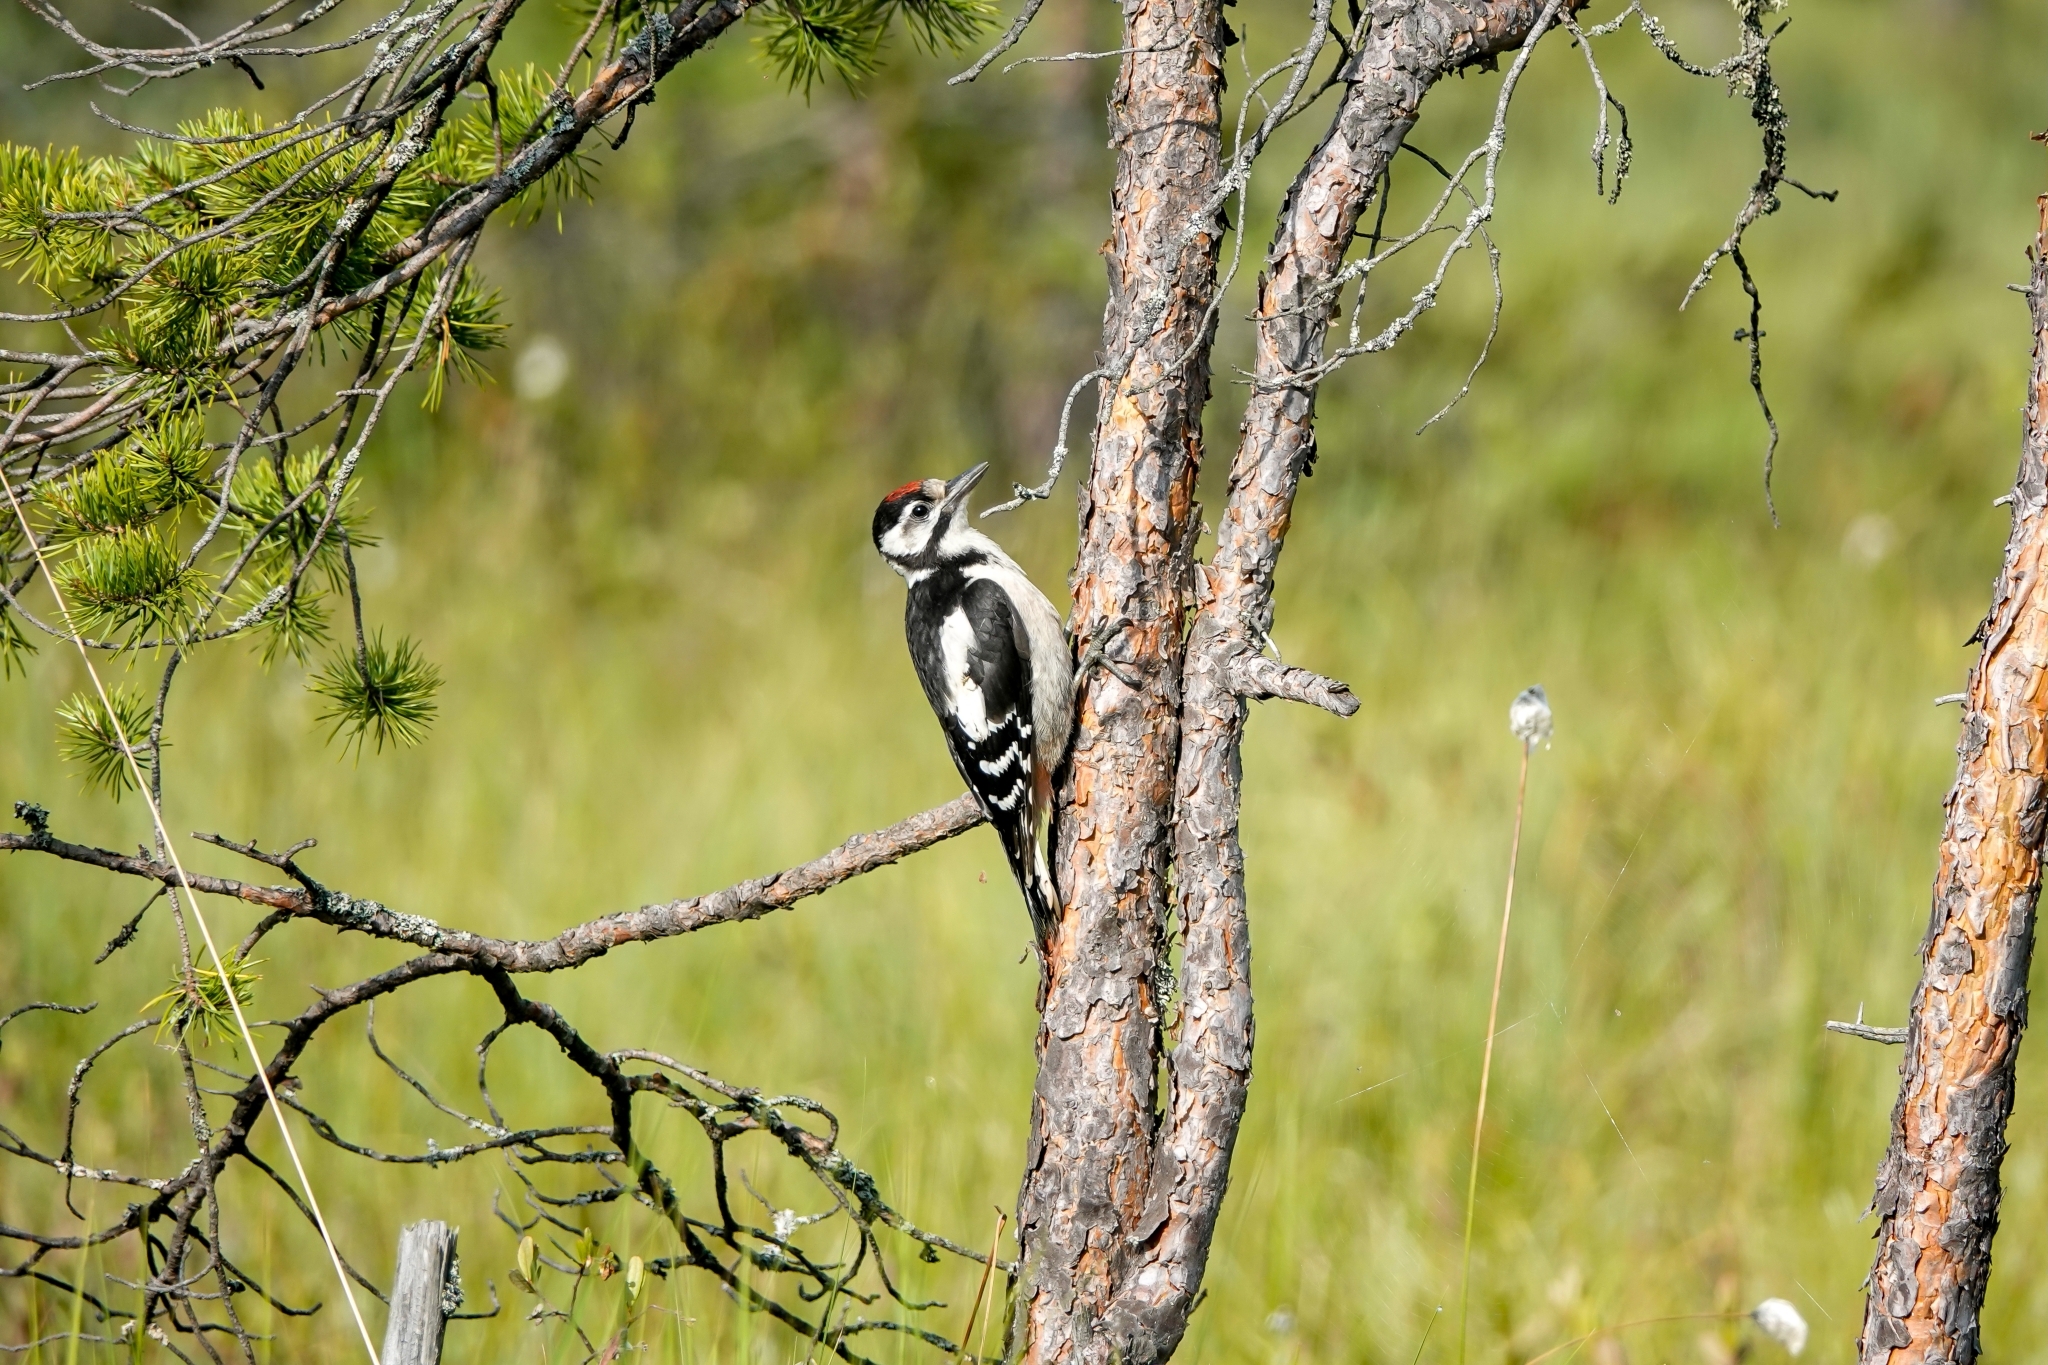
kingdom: Animalia
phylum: Chordata
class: Aves
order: Piciformes
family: Picidae
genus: Dendrocopos
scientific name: Dendrocopos major
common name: Great spotted woodpecker
